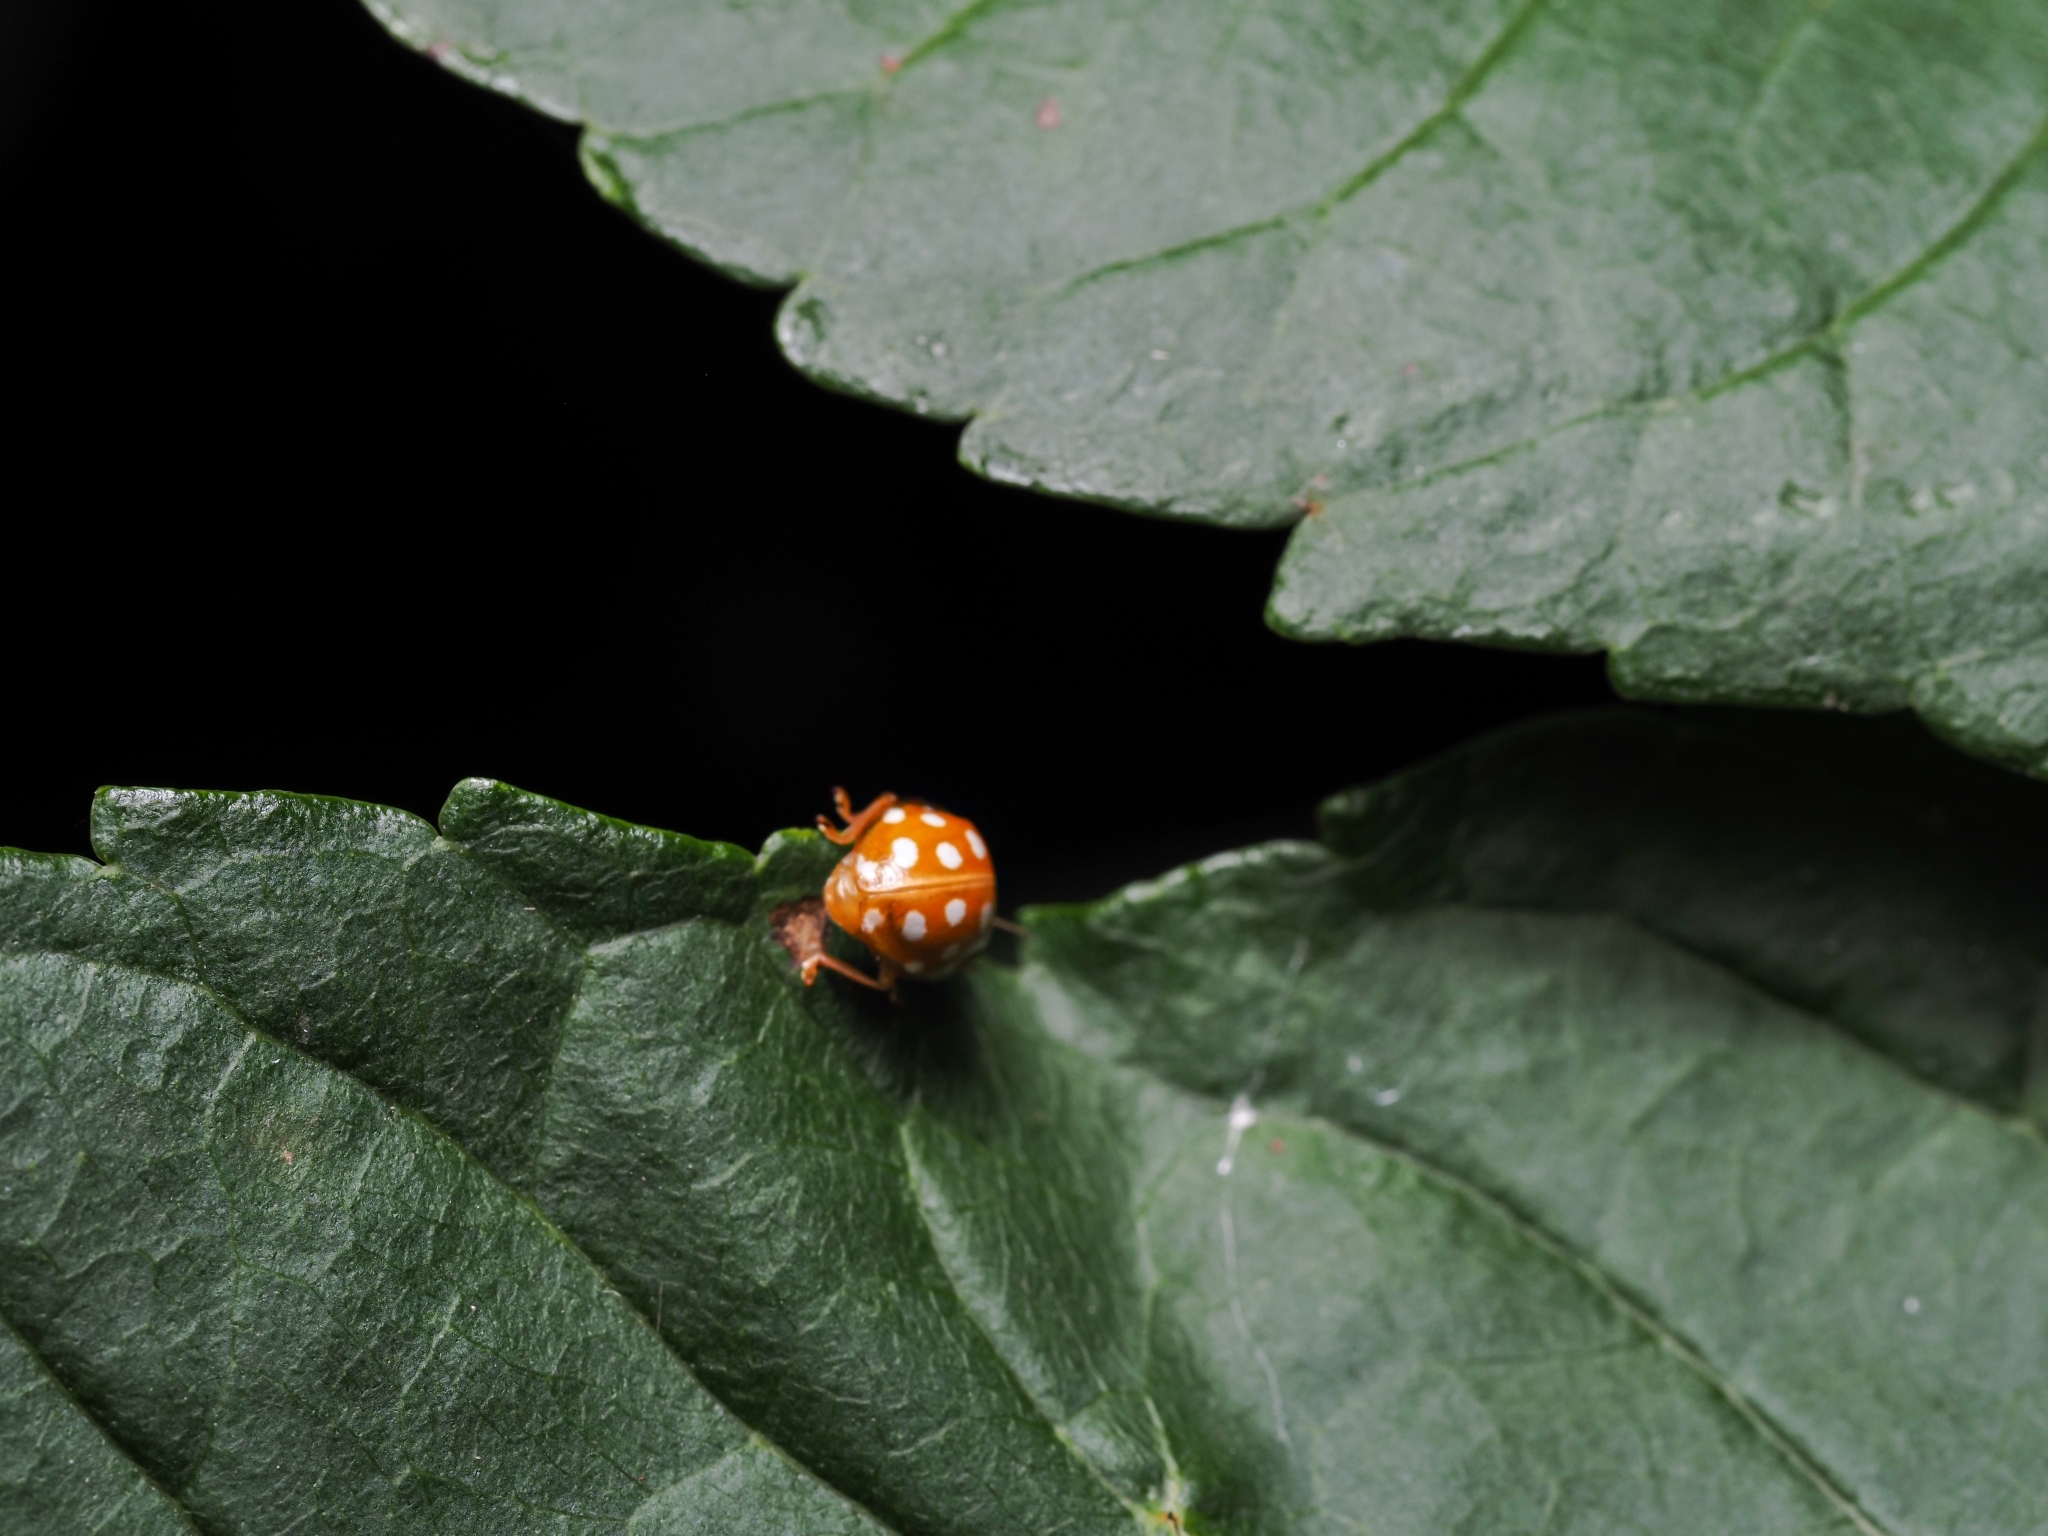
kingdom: Animalia
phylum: Arthropoda
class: Insecta
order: Coleoptera
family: Coccinellidae
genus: Halyzia
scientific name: Halyzia sedecimguttata
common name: Orange ladybird
